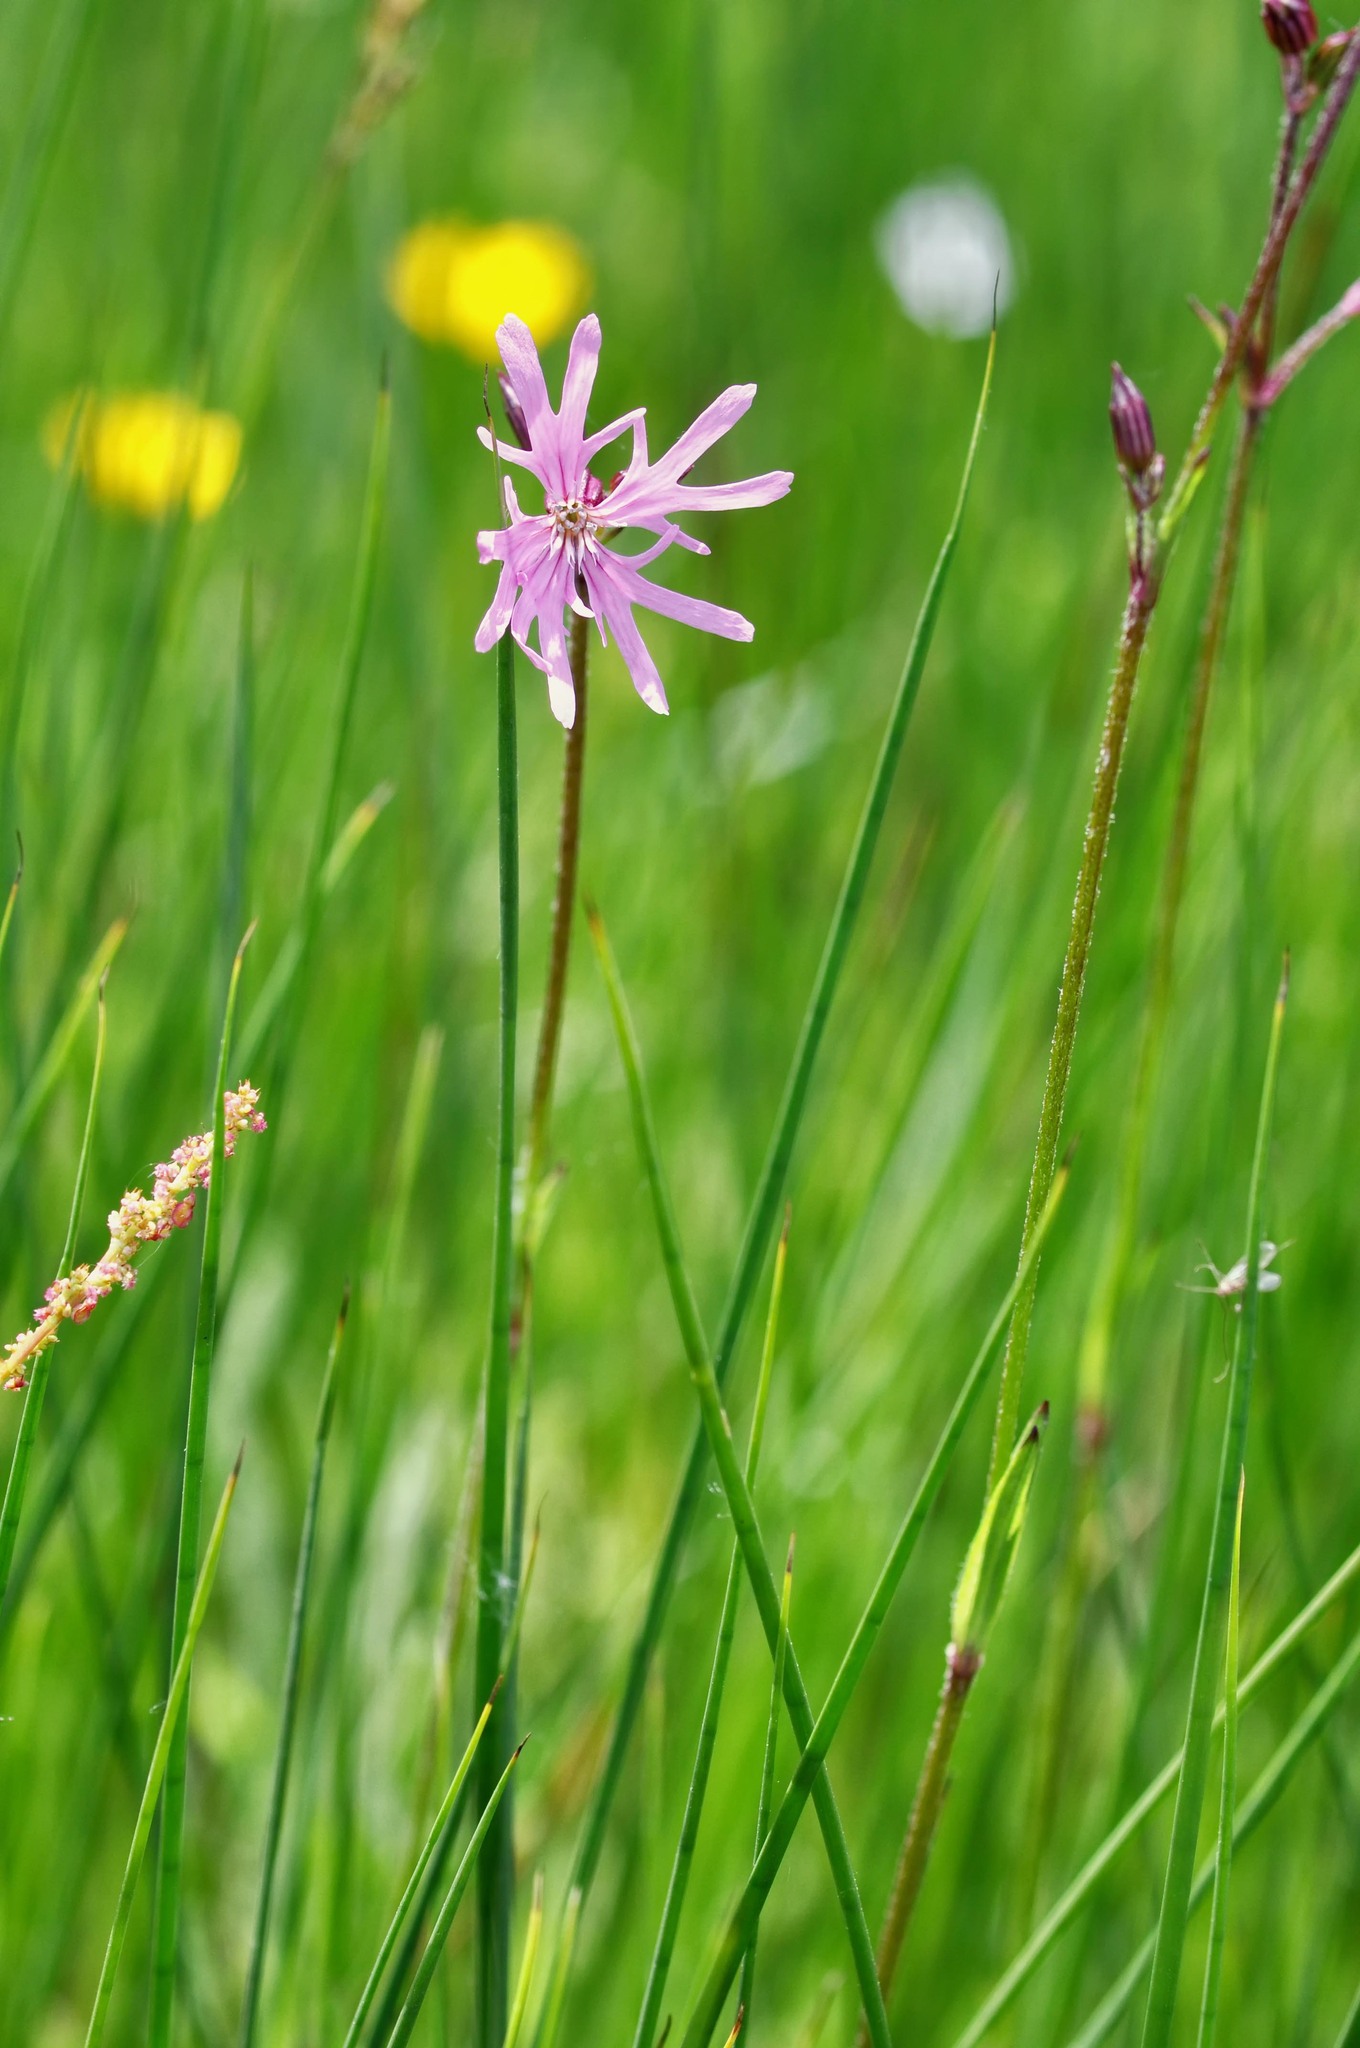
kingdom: Plantae
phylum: Tracheophyta
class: Magnoliopsida
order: Caryophyllales
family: Caryophyllaceae
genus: Silene
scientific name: Silene flos-cuculi
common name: Ragged-robin
